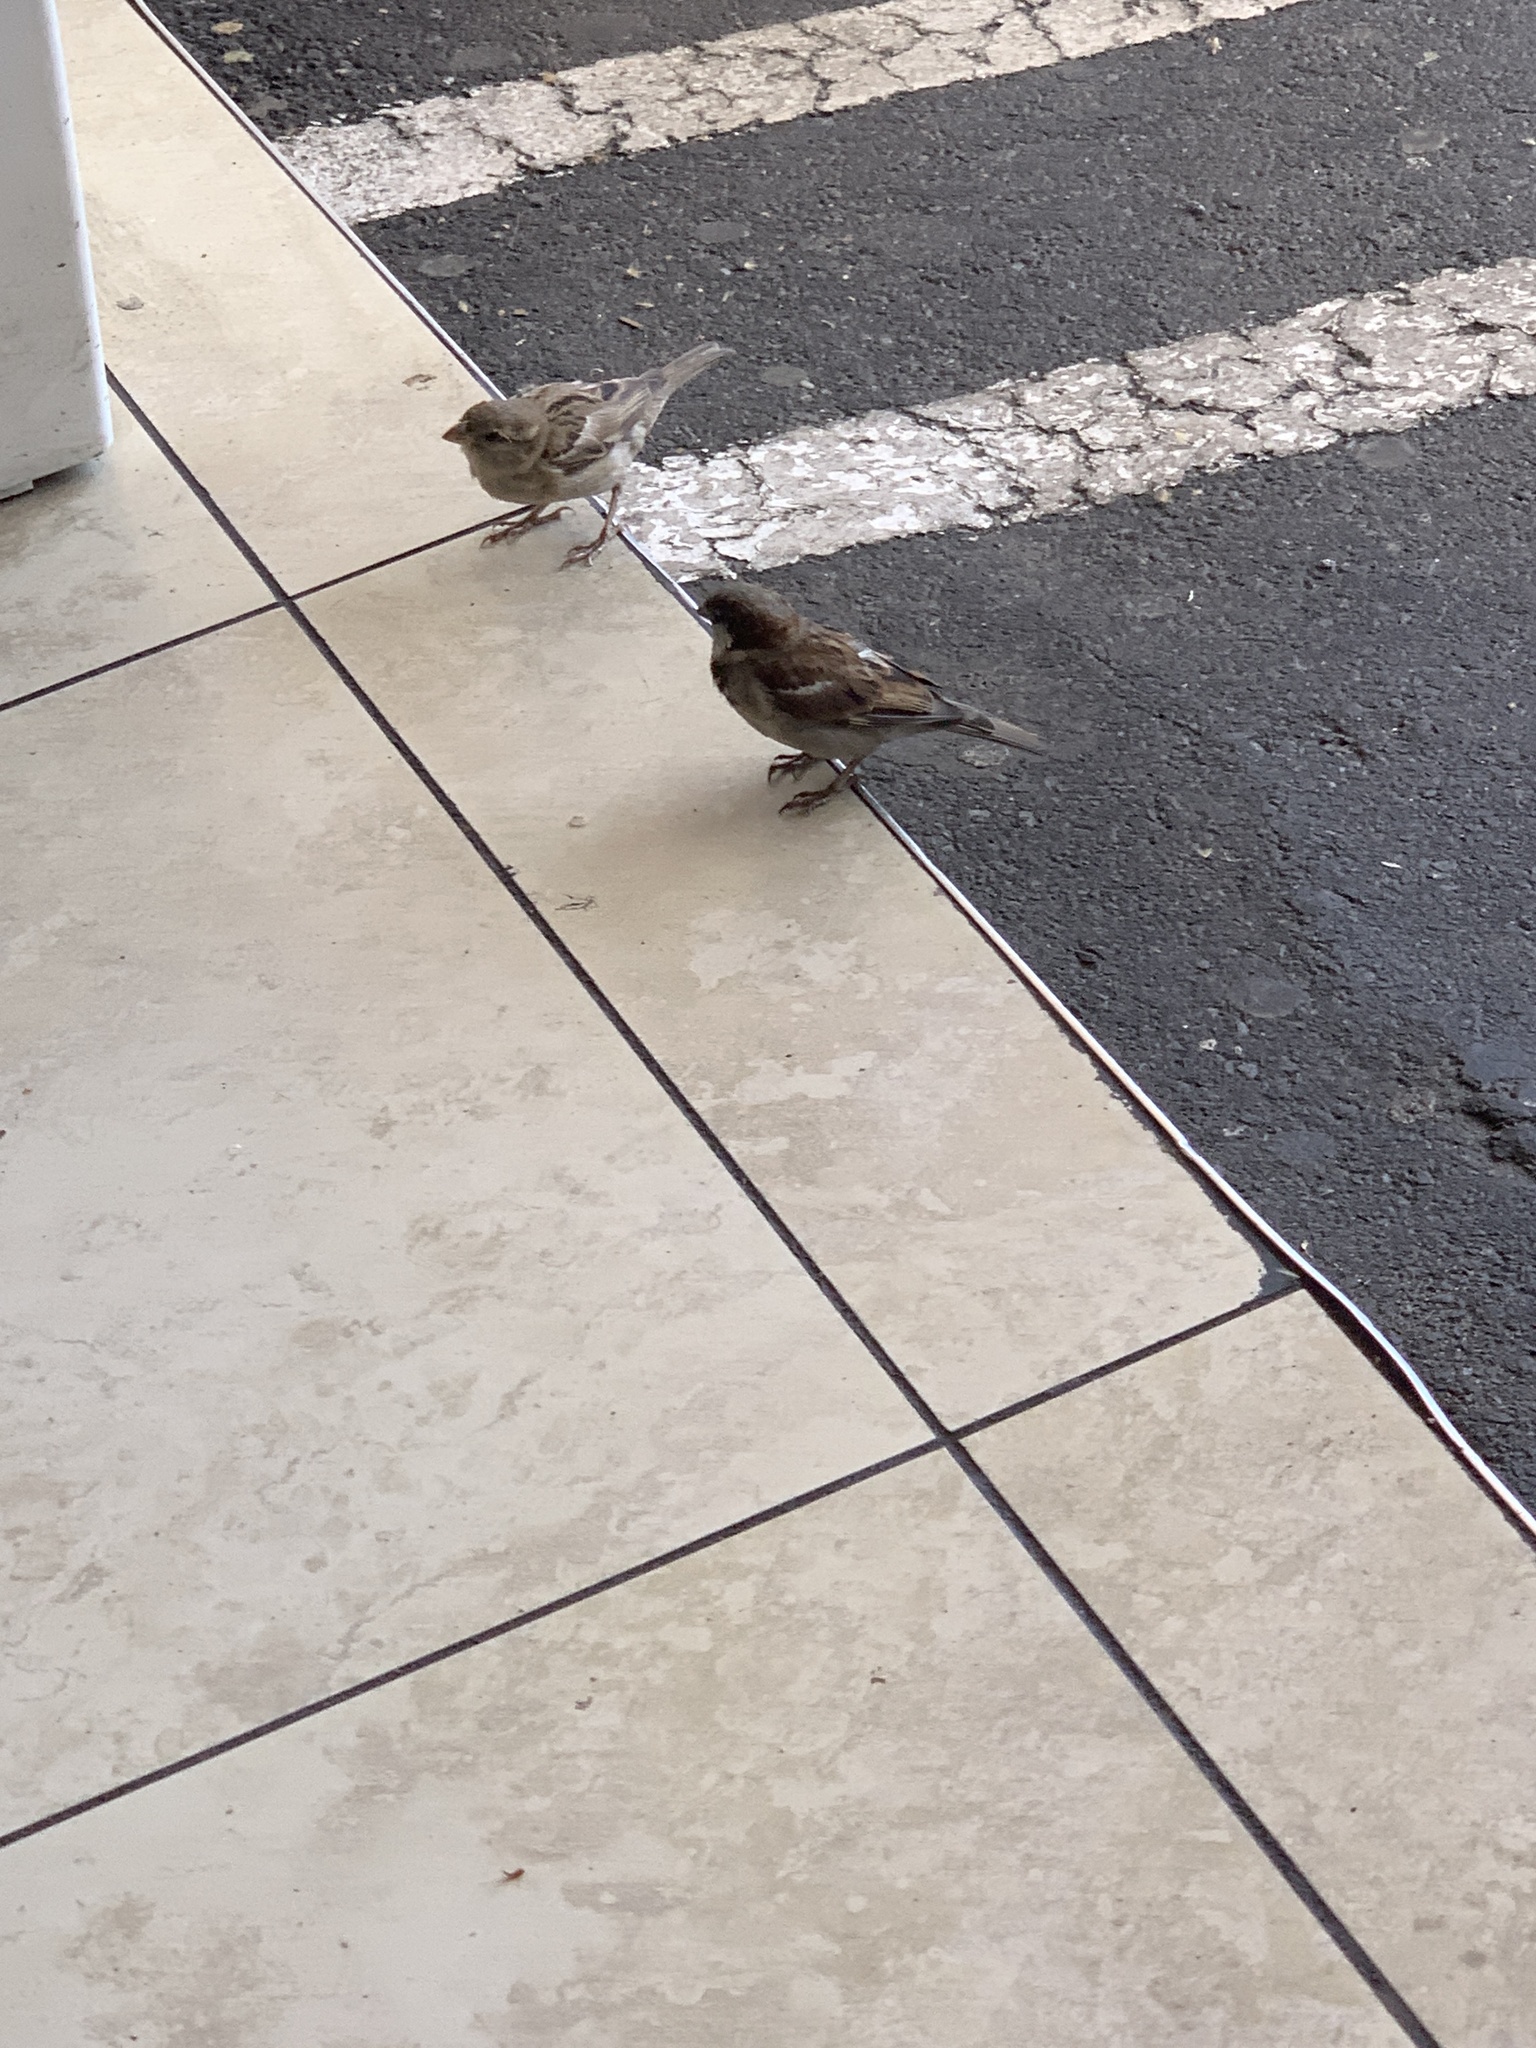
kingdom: Animalia
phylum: Chordata
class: Aves
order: Passeriformes
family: Passeridae
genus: Passer
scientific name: Passer domesticus
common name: House sparrow
